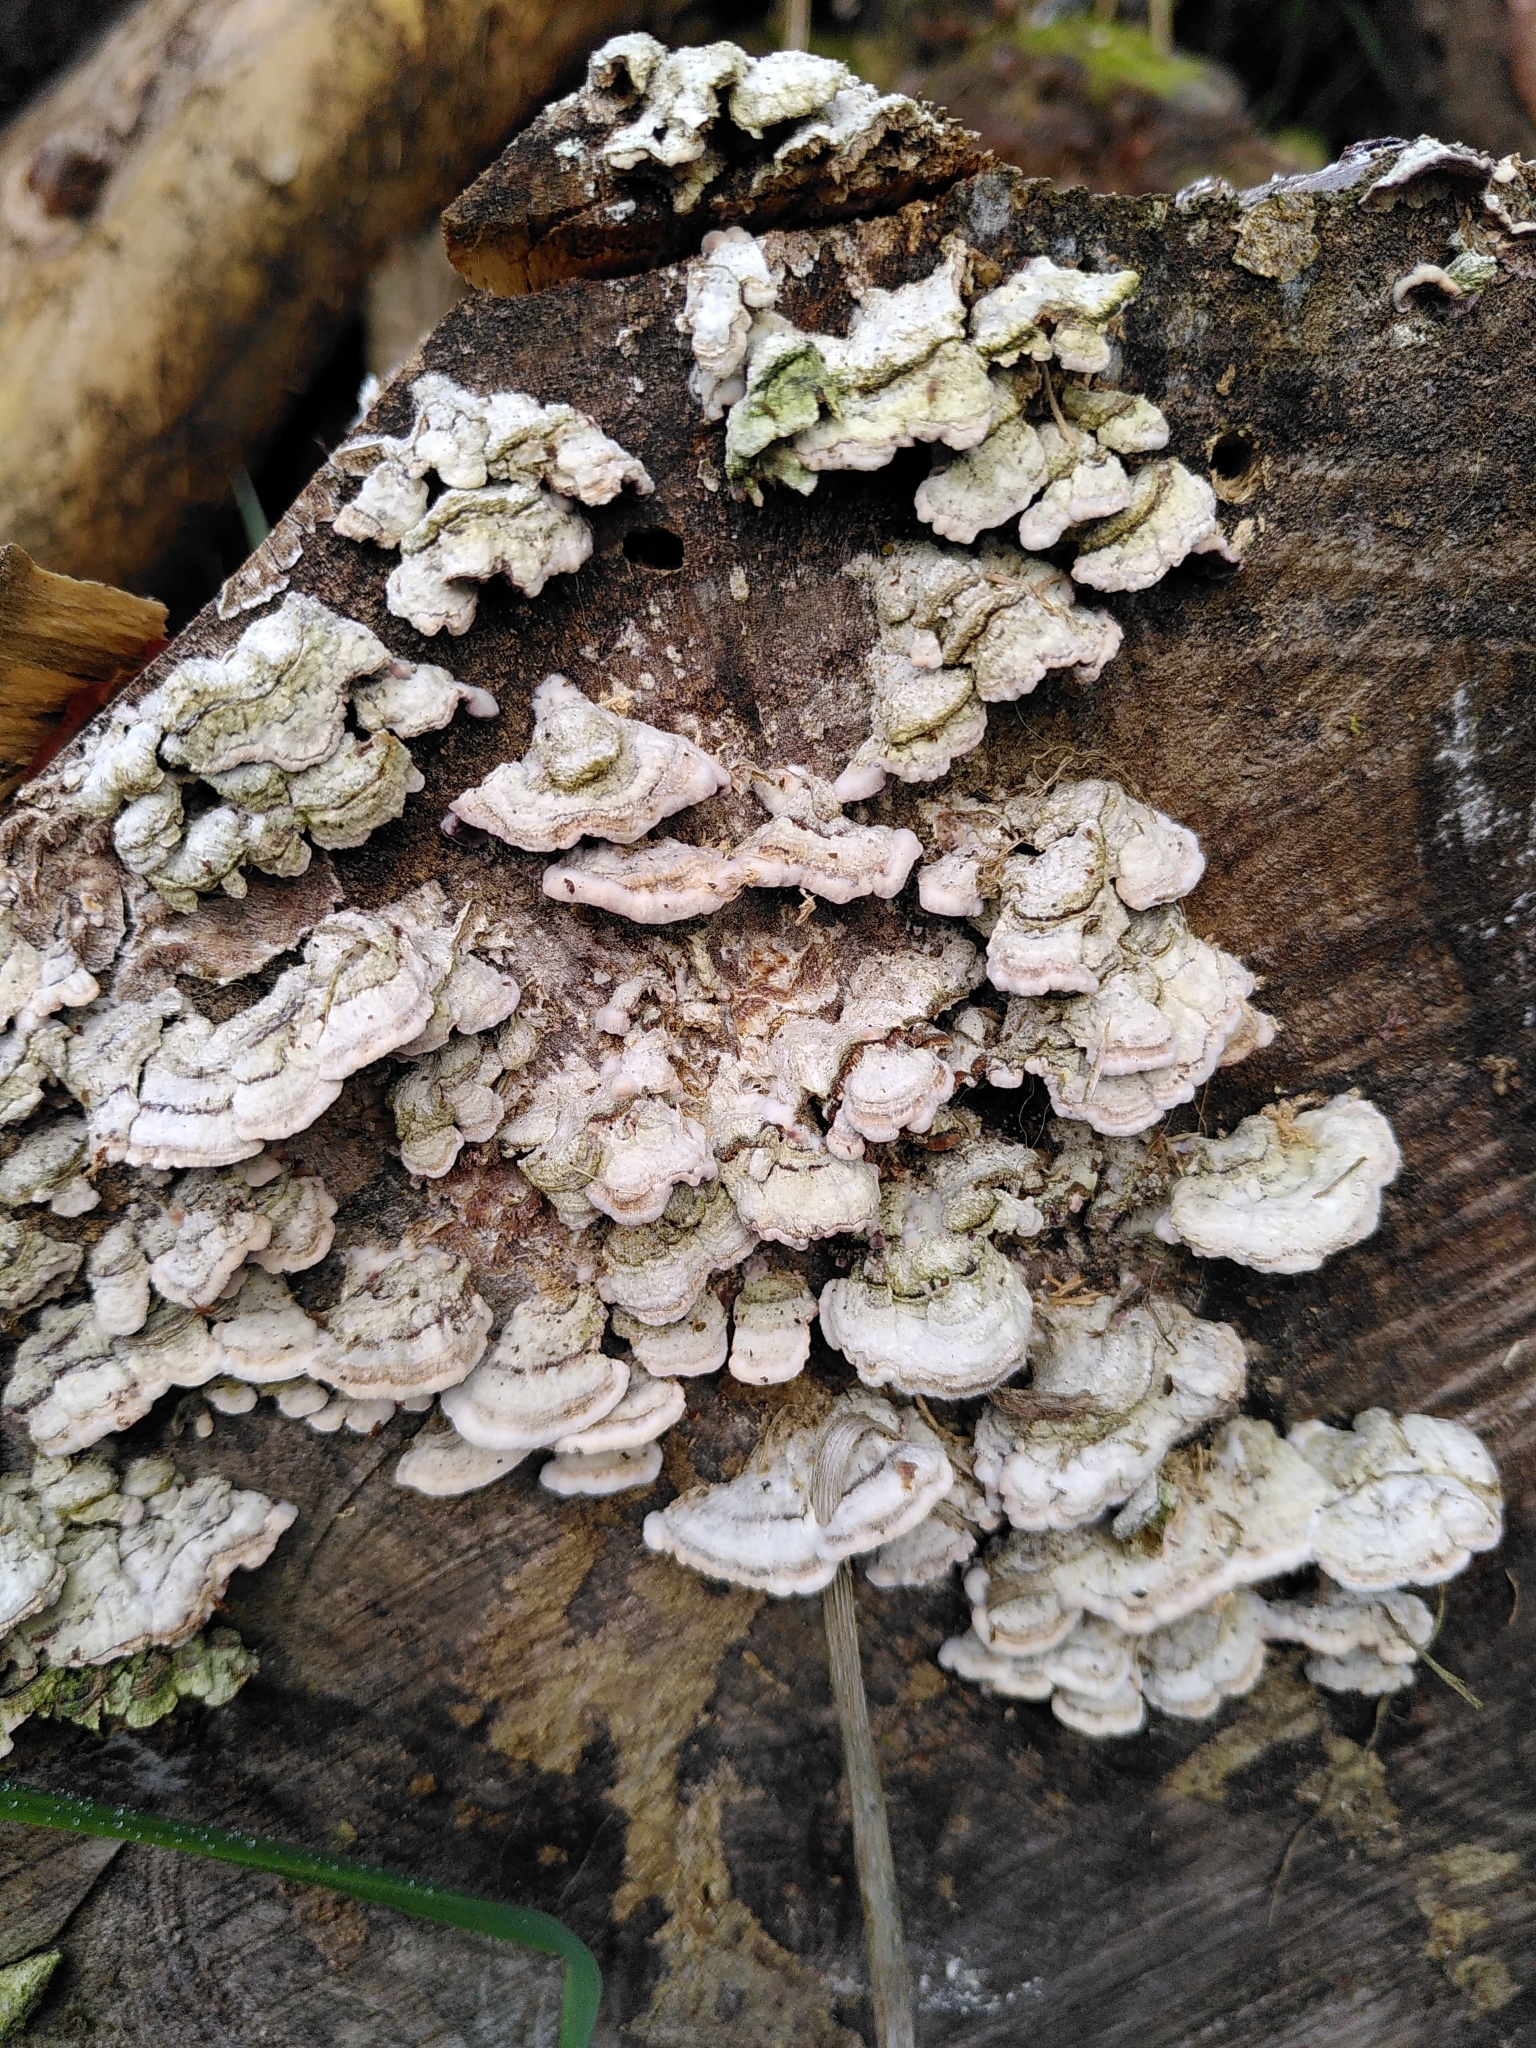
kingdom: Fungi
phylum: Basidiomycota
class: Agaricomycetes
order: Hymenochaetales
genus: Trichaptum
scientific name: Trichaptum abietinum
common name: Purplepore bracket
